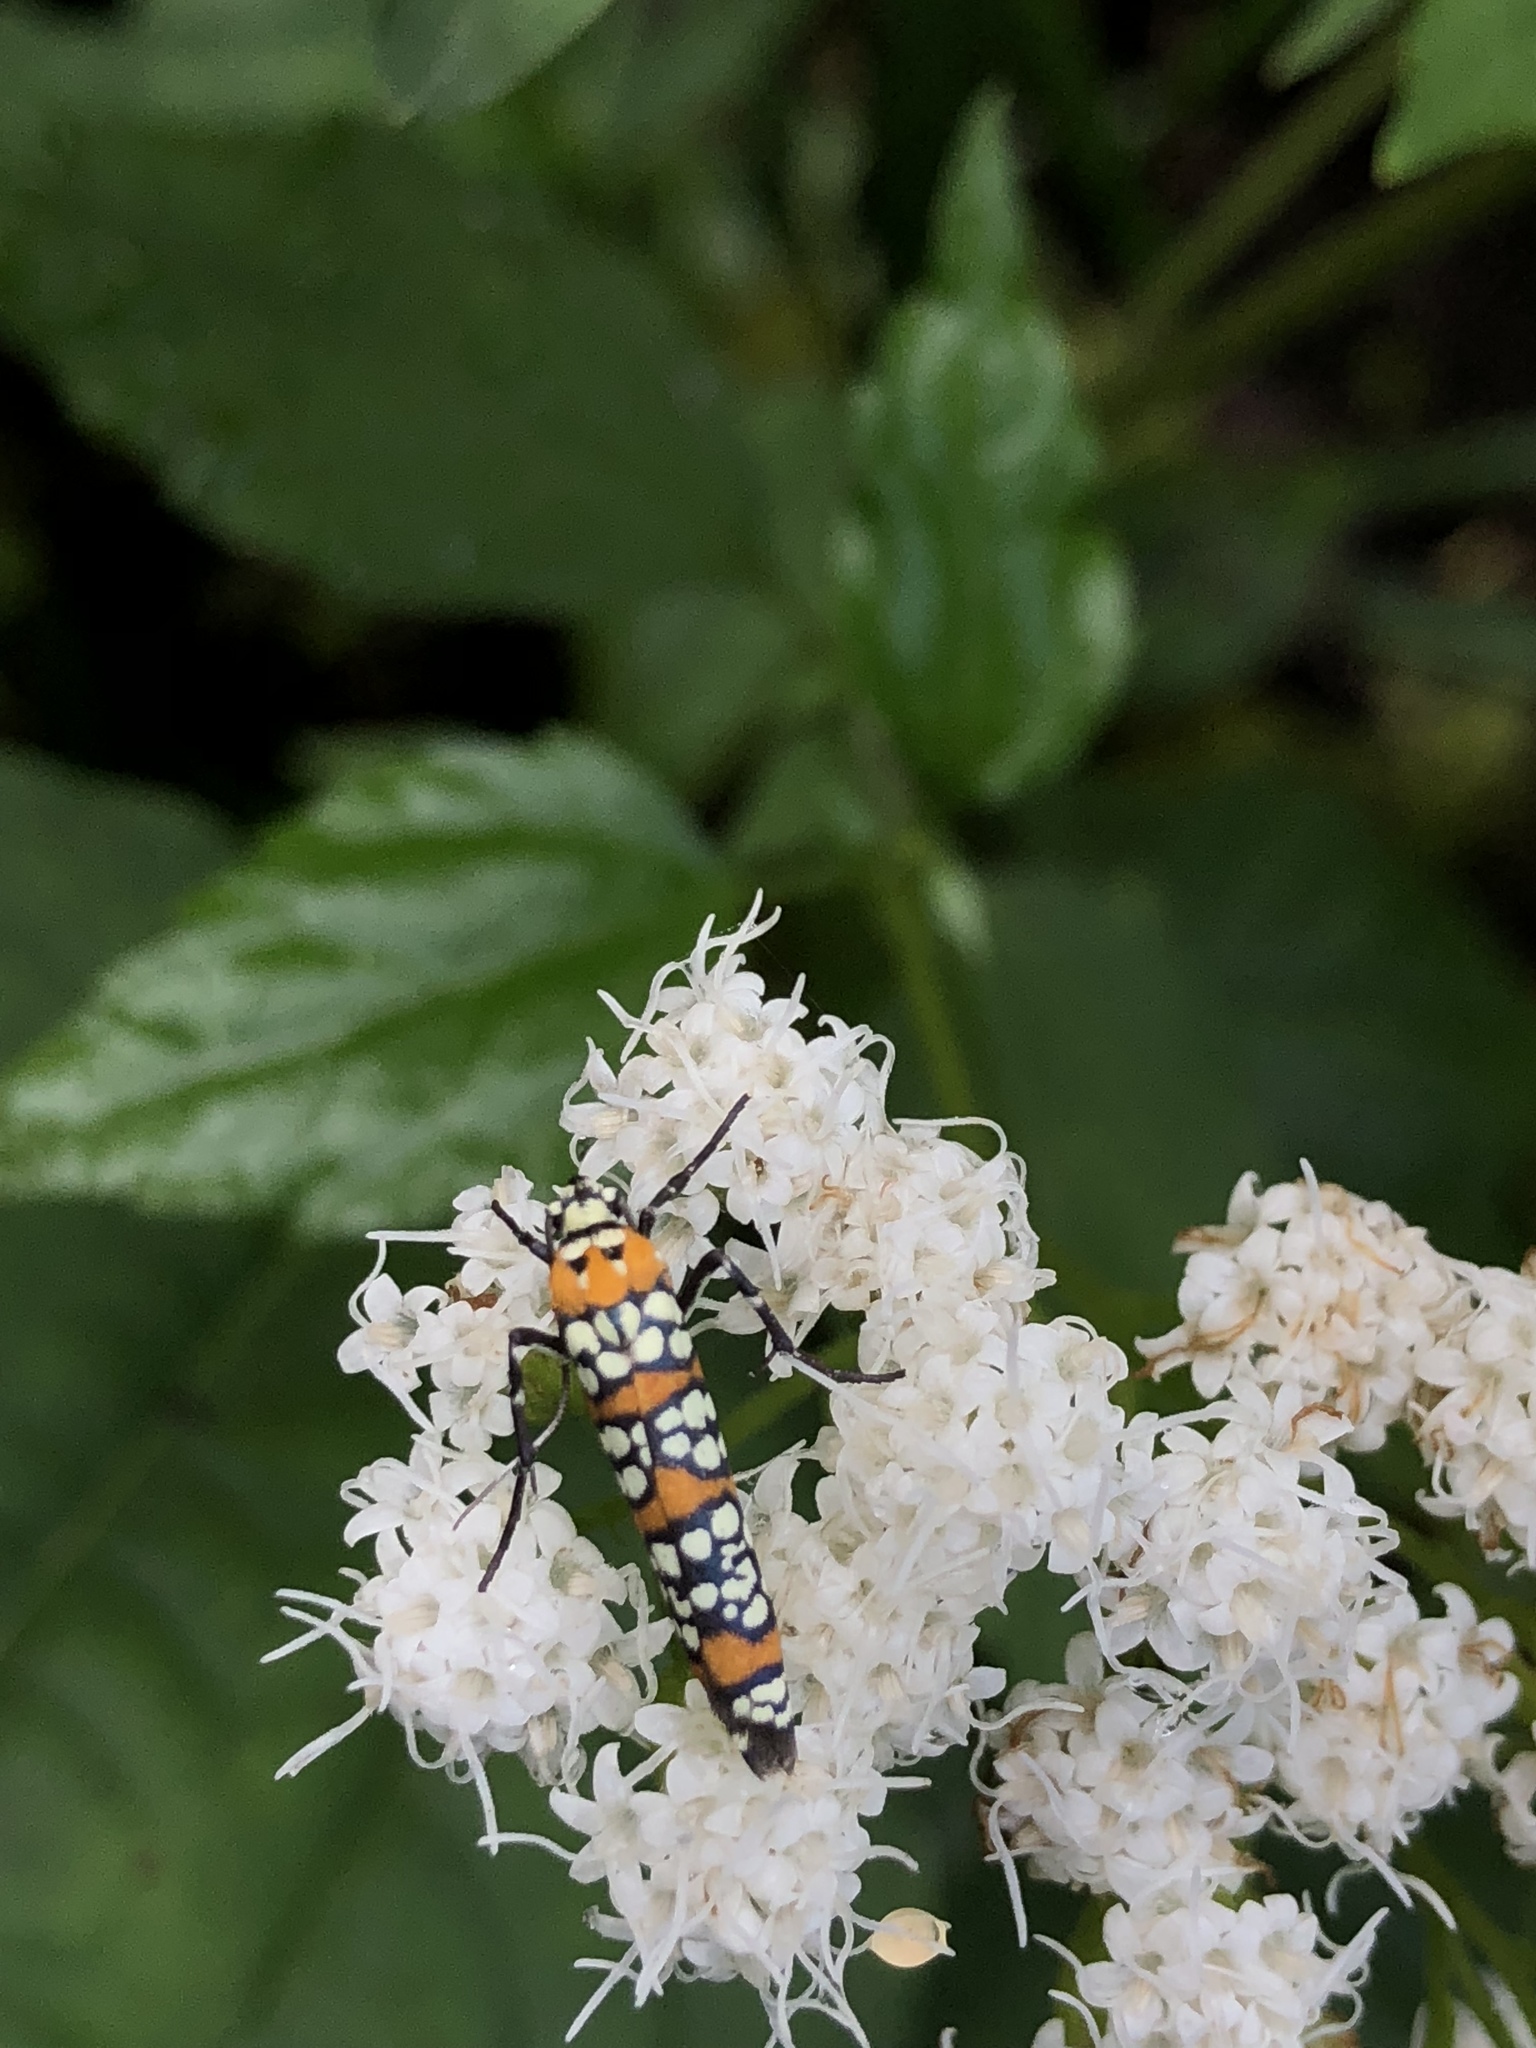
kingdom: Animalia
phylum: Arthropoda
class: Insecta
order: Lepidoptera
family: Attevidae
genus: Atteva
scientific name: Atteva punctella
